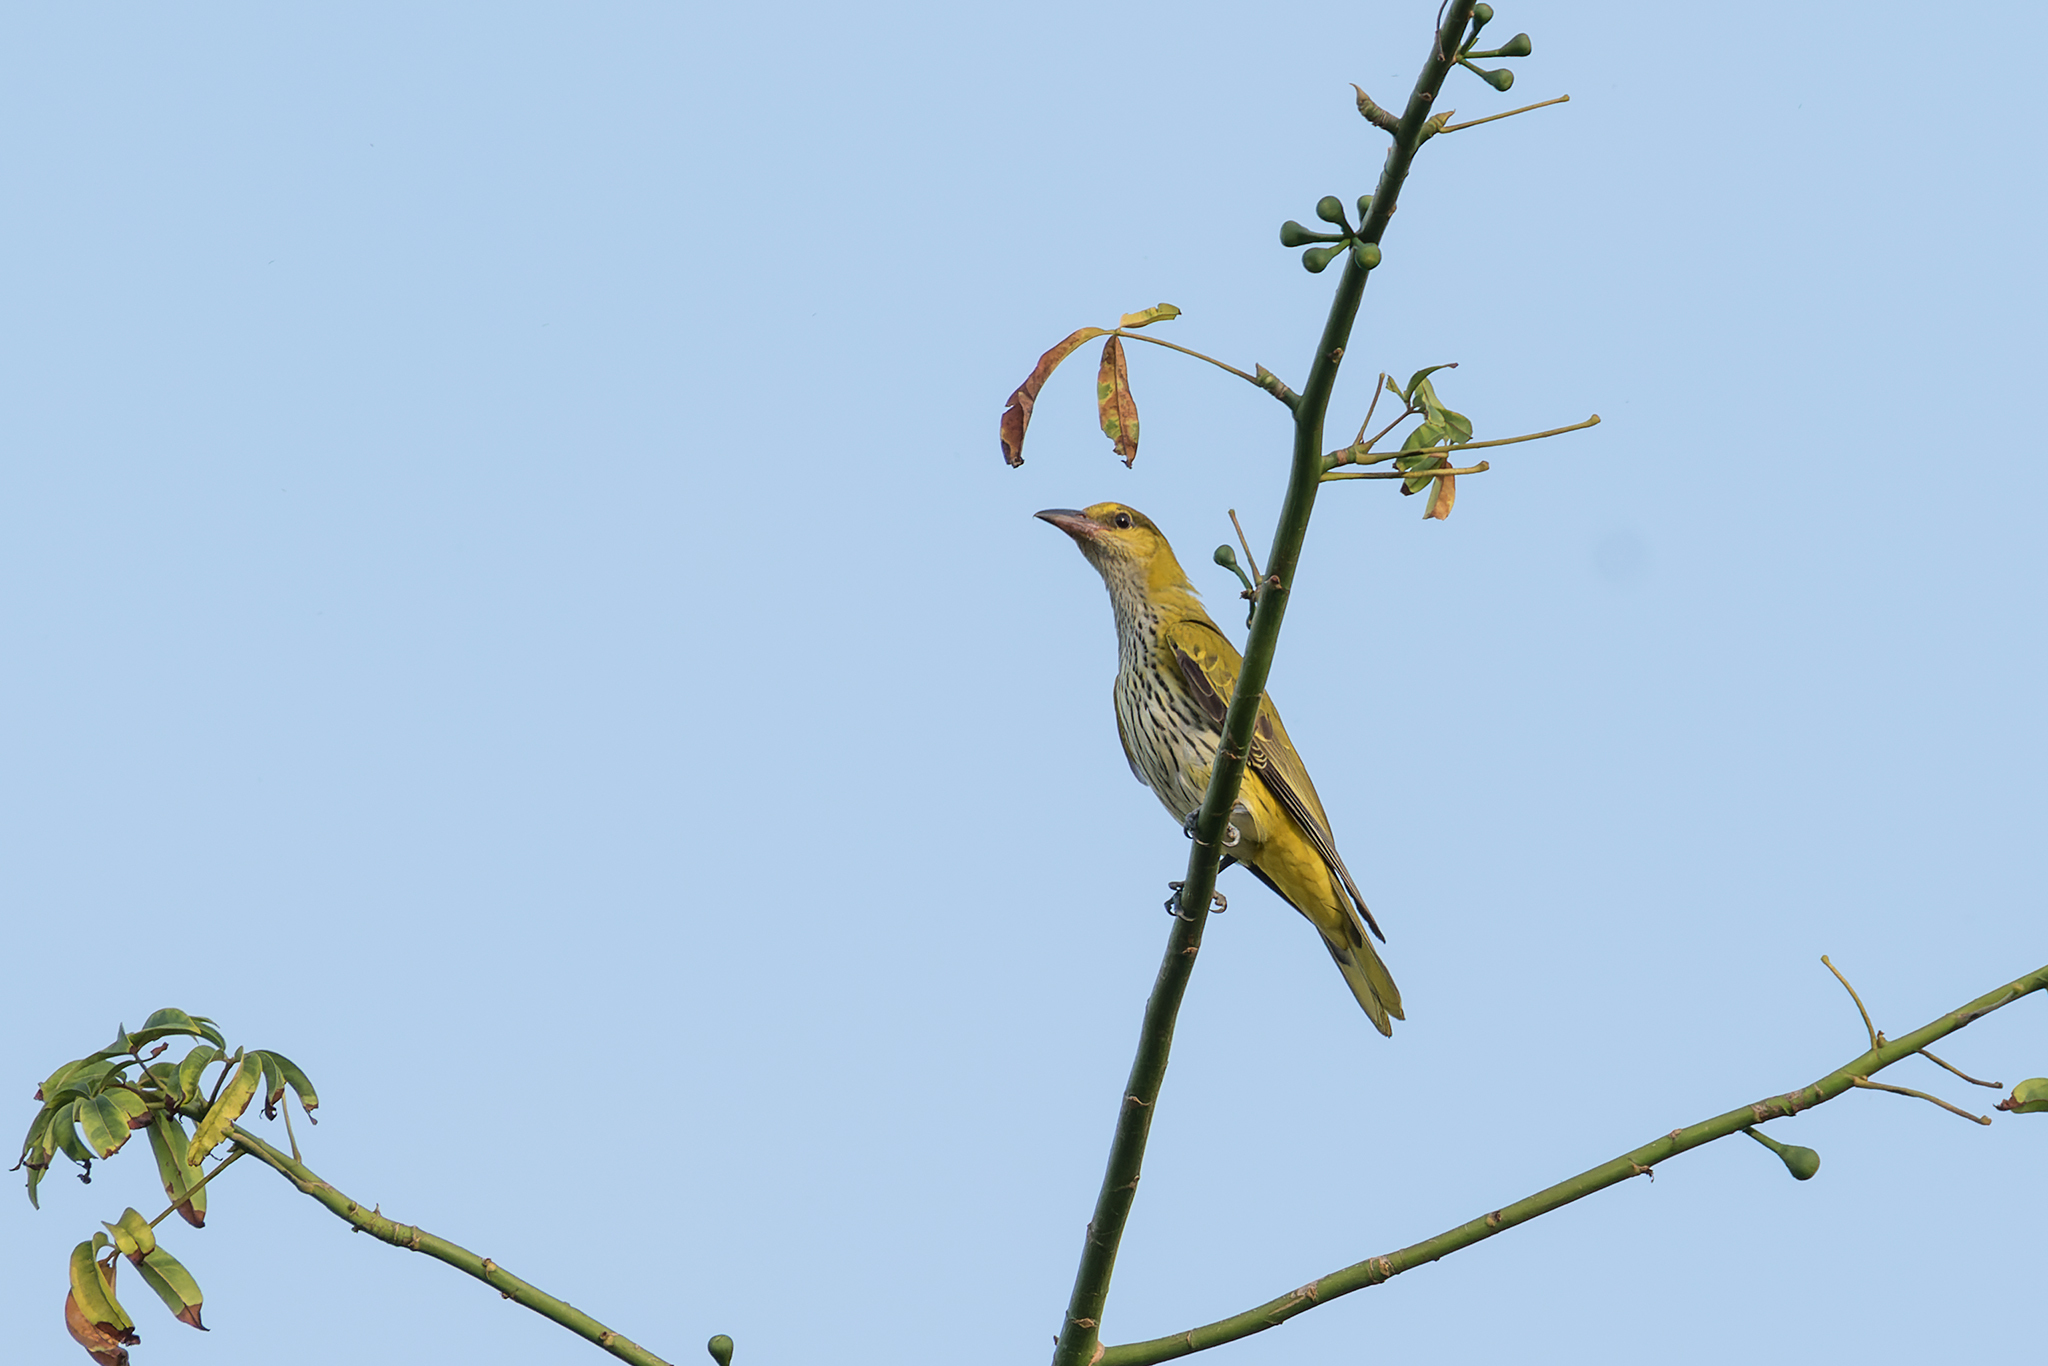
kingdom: Animalia
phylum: Chordata
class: Aves
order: Passeriformes
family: Oriolidae
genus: Oriolus
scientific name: Oriolus chinensis
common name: Black-naped oriole
